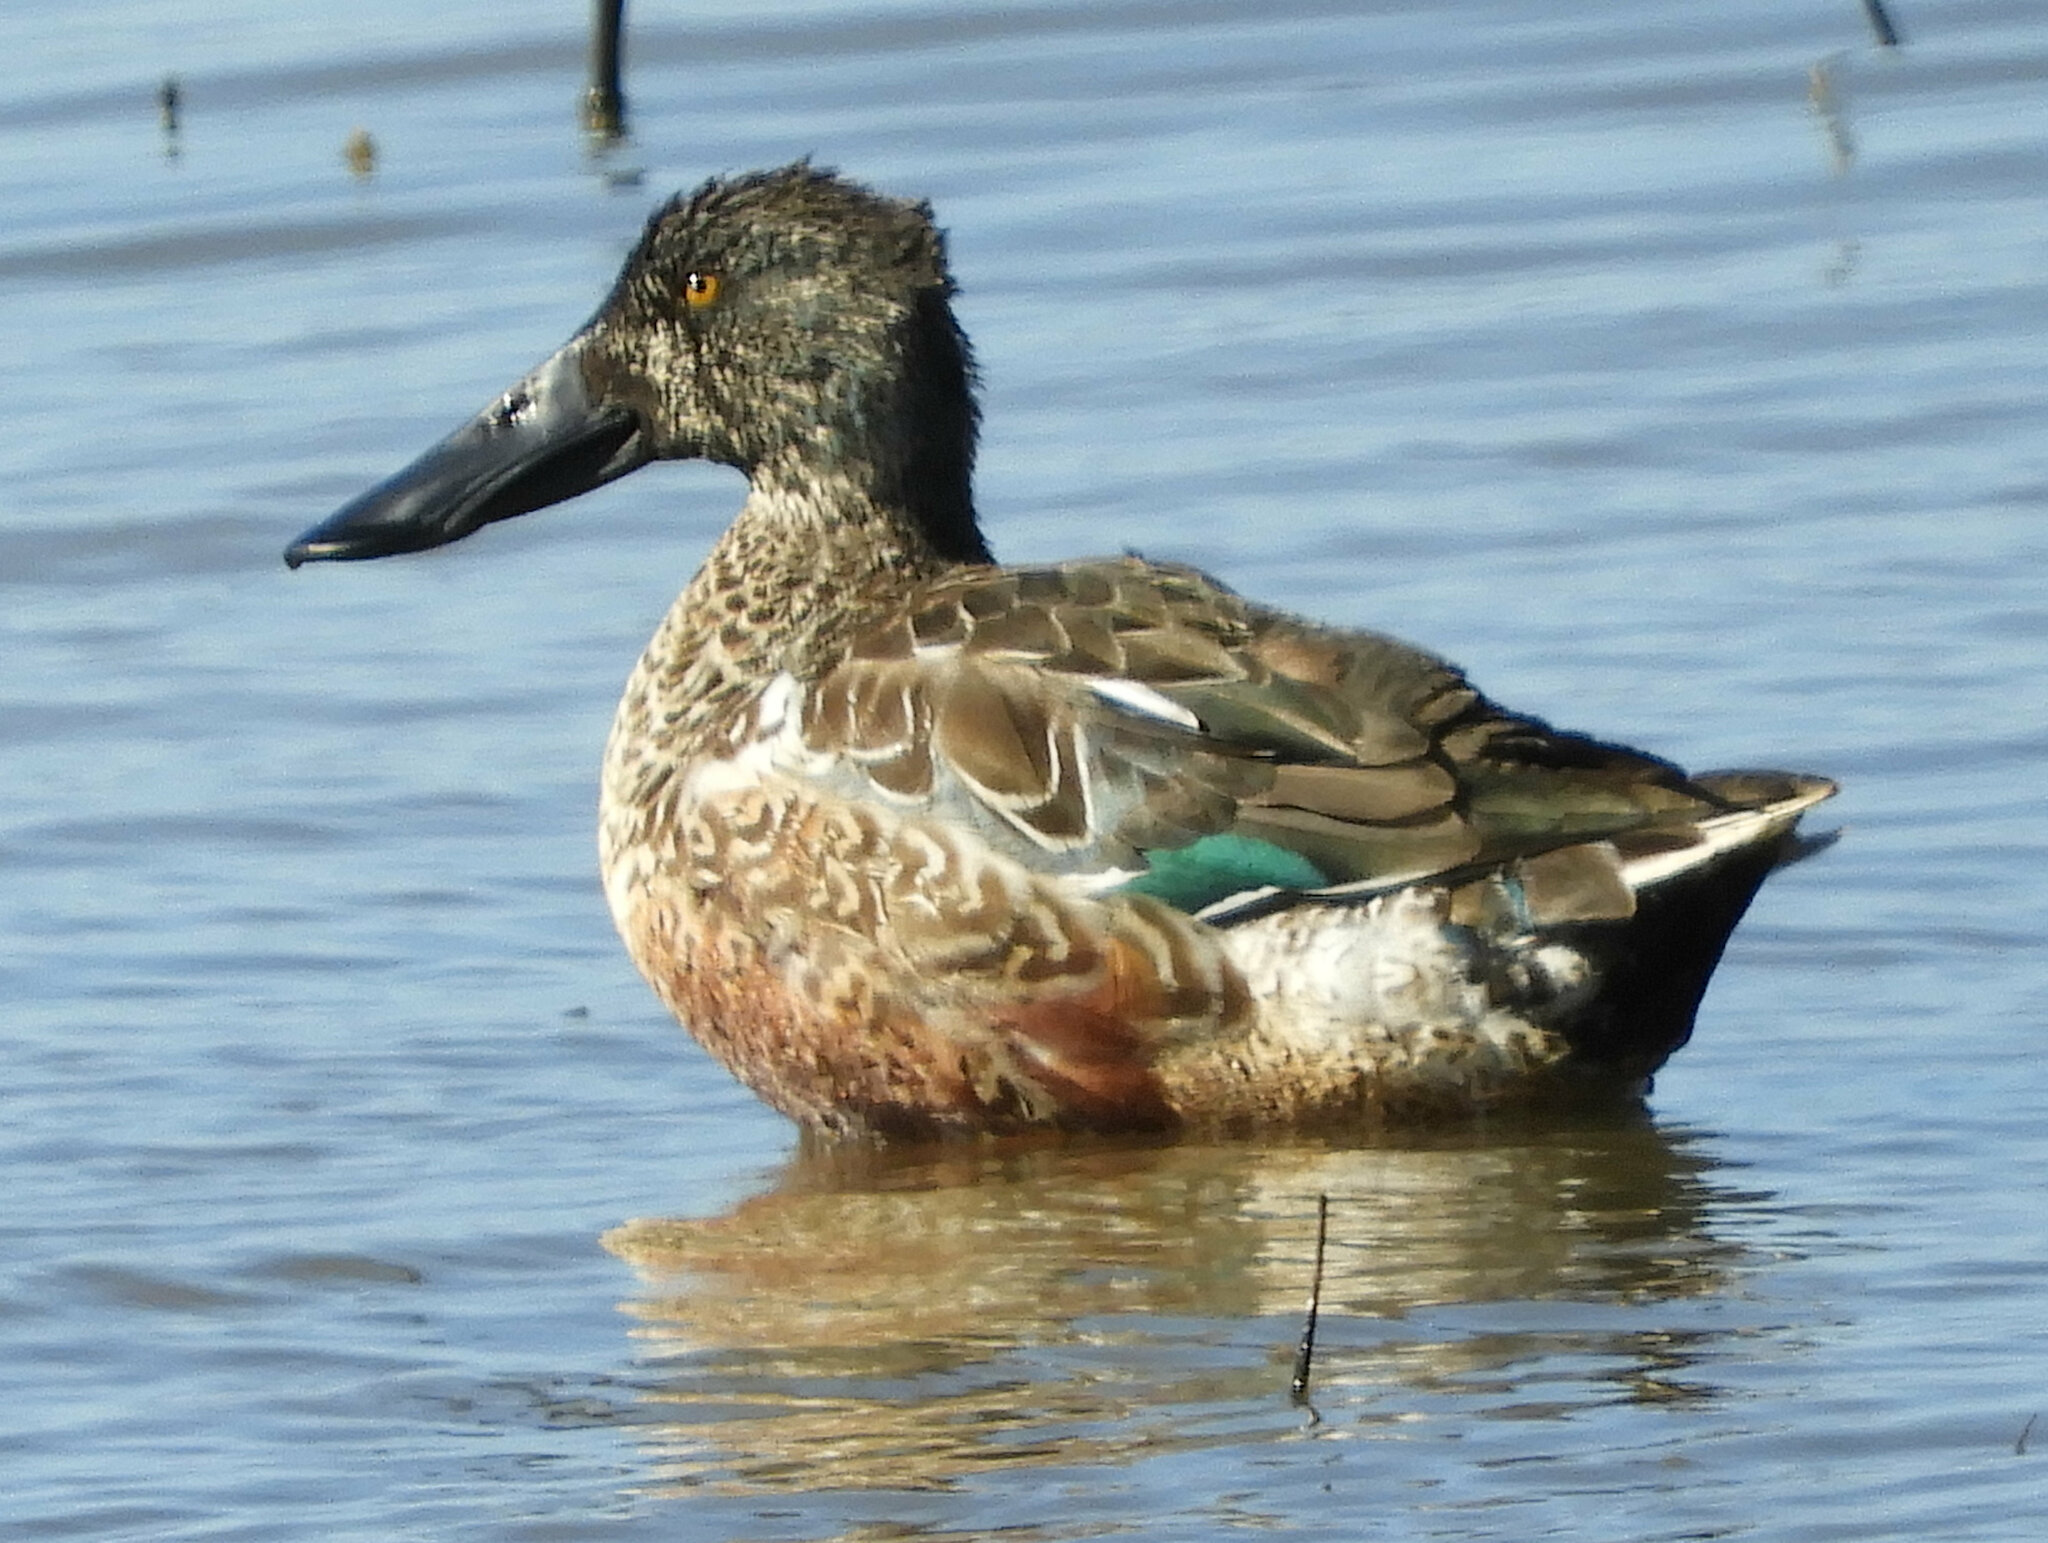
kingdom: Animalia
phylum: Chordata
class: Aves
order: Anseriformes
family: Anatidae
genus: Spatula
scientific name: Spatula clypeata
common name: Northern shoveler
